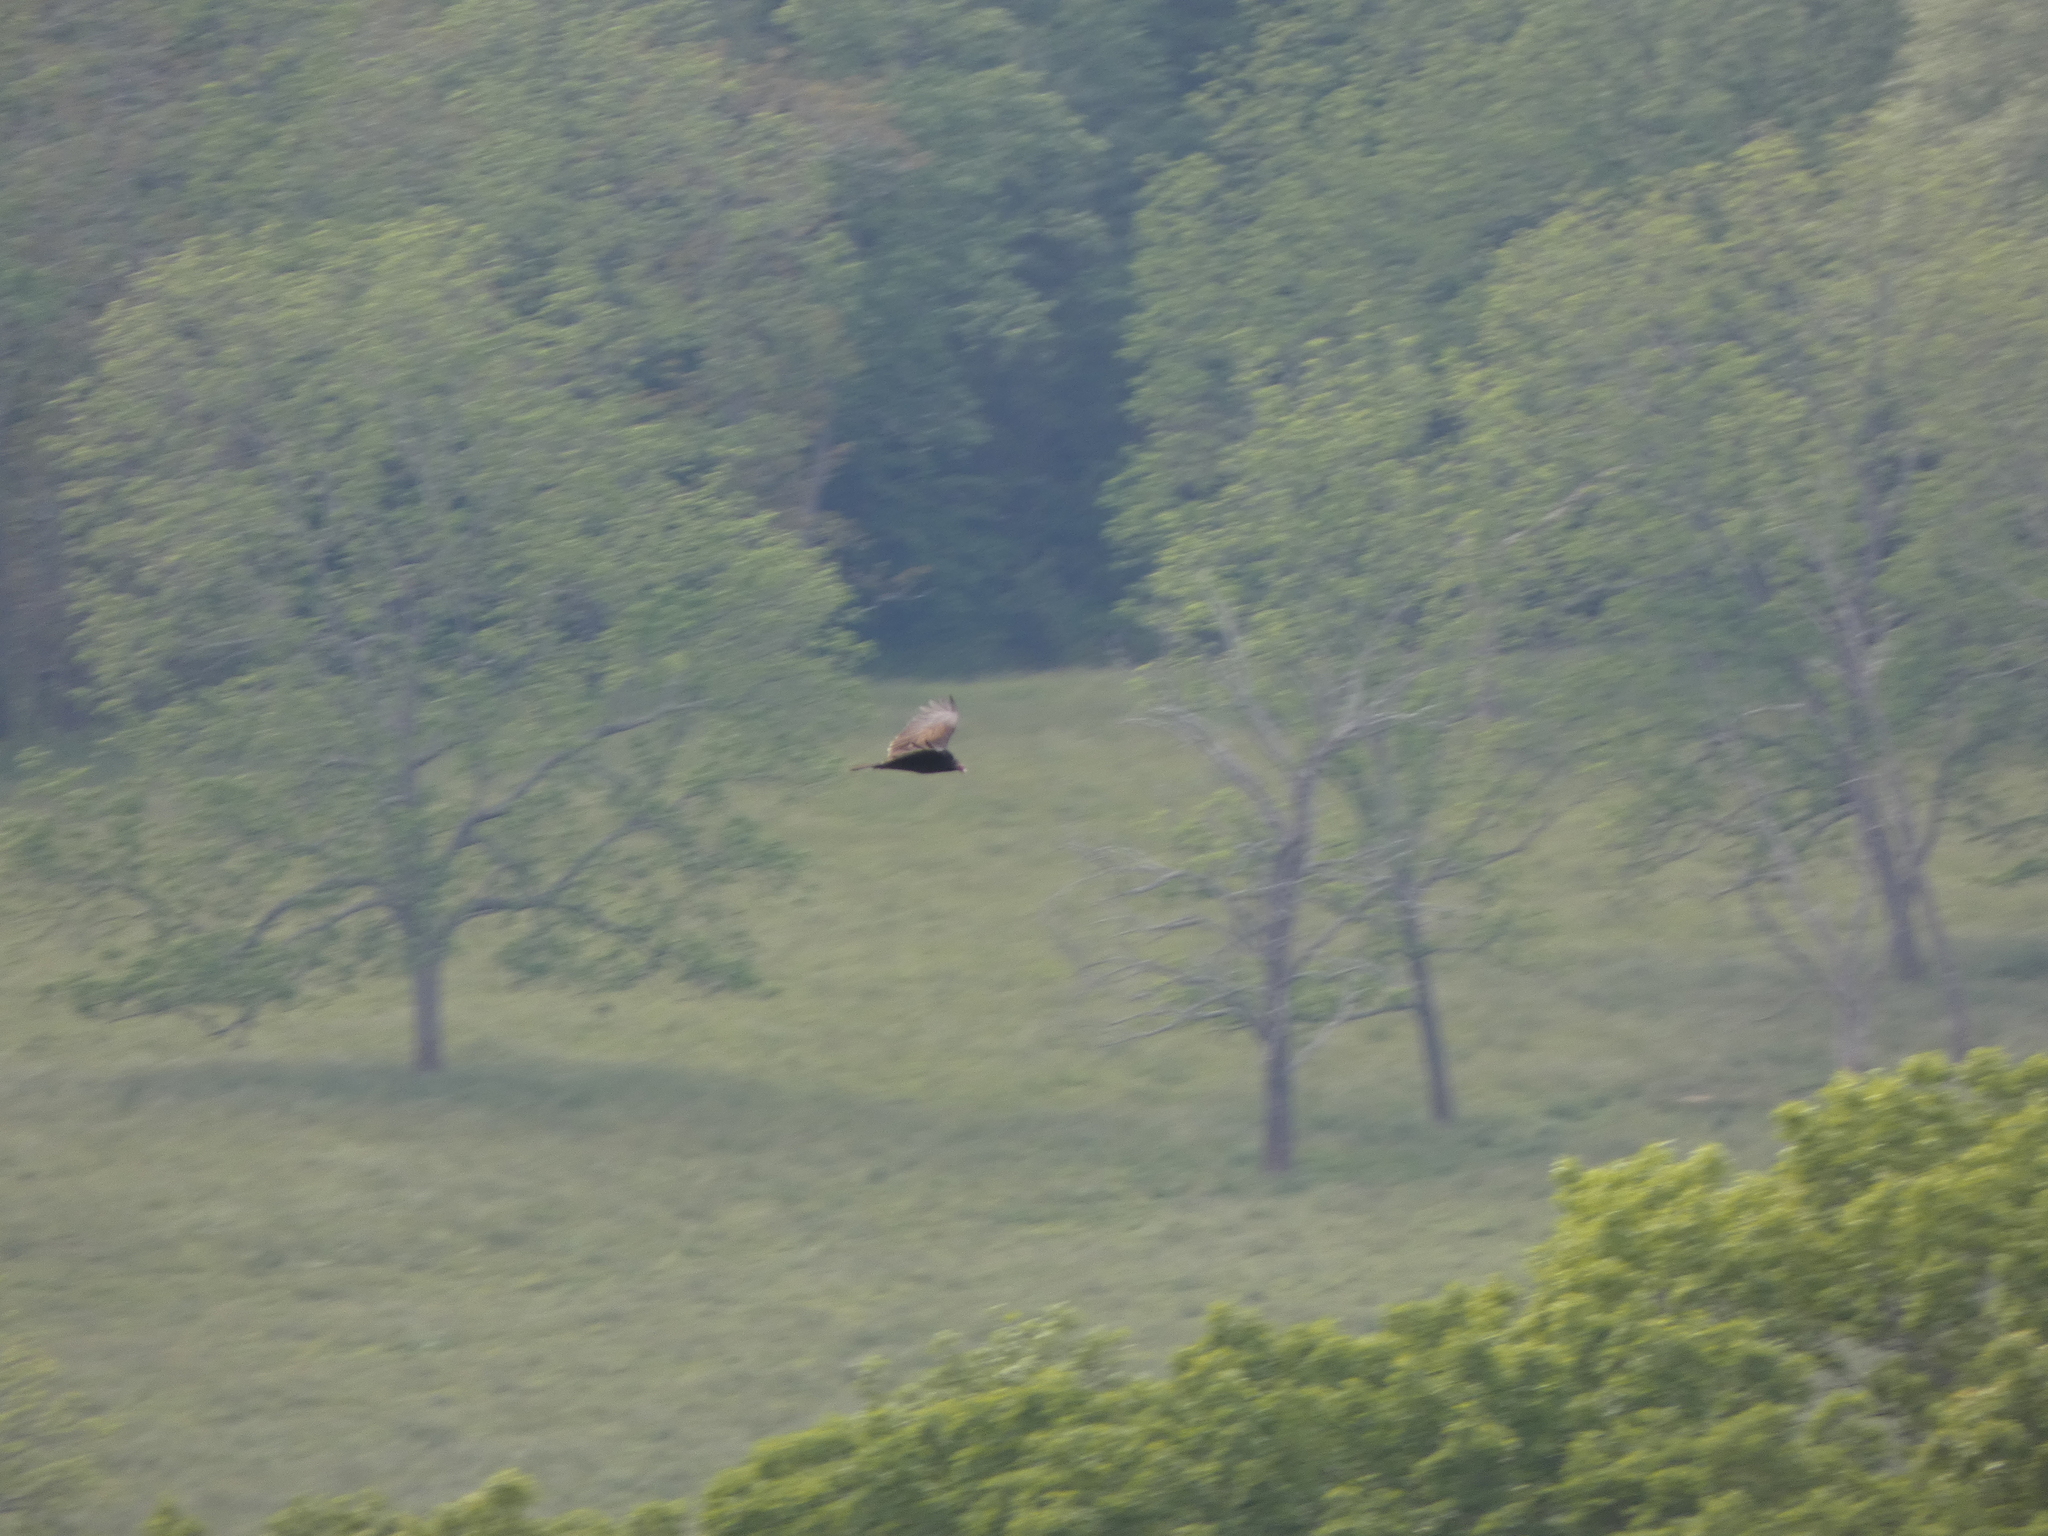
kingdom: Animalia
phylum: Chordata
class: Aves
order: Accipitriformes
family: Cathartidae
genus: Cathartes
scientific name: Cathartes aura
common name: Turkey vulture
